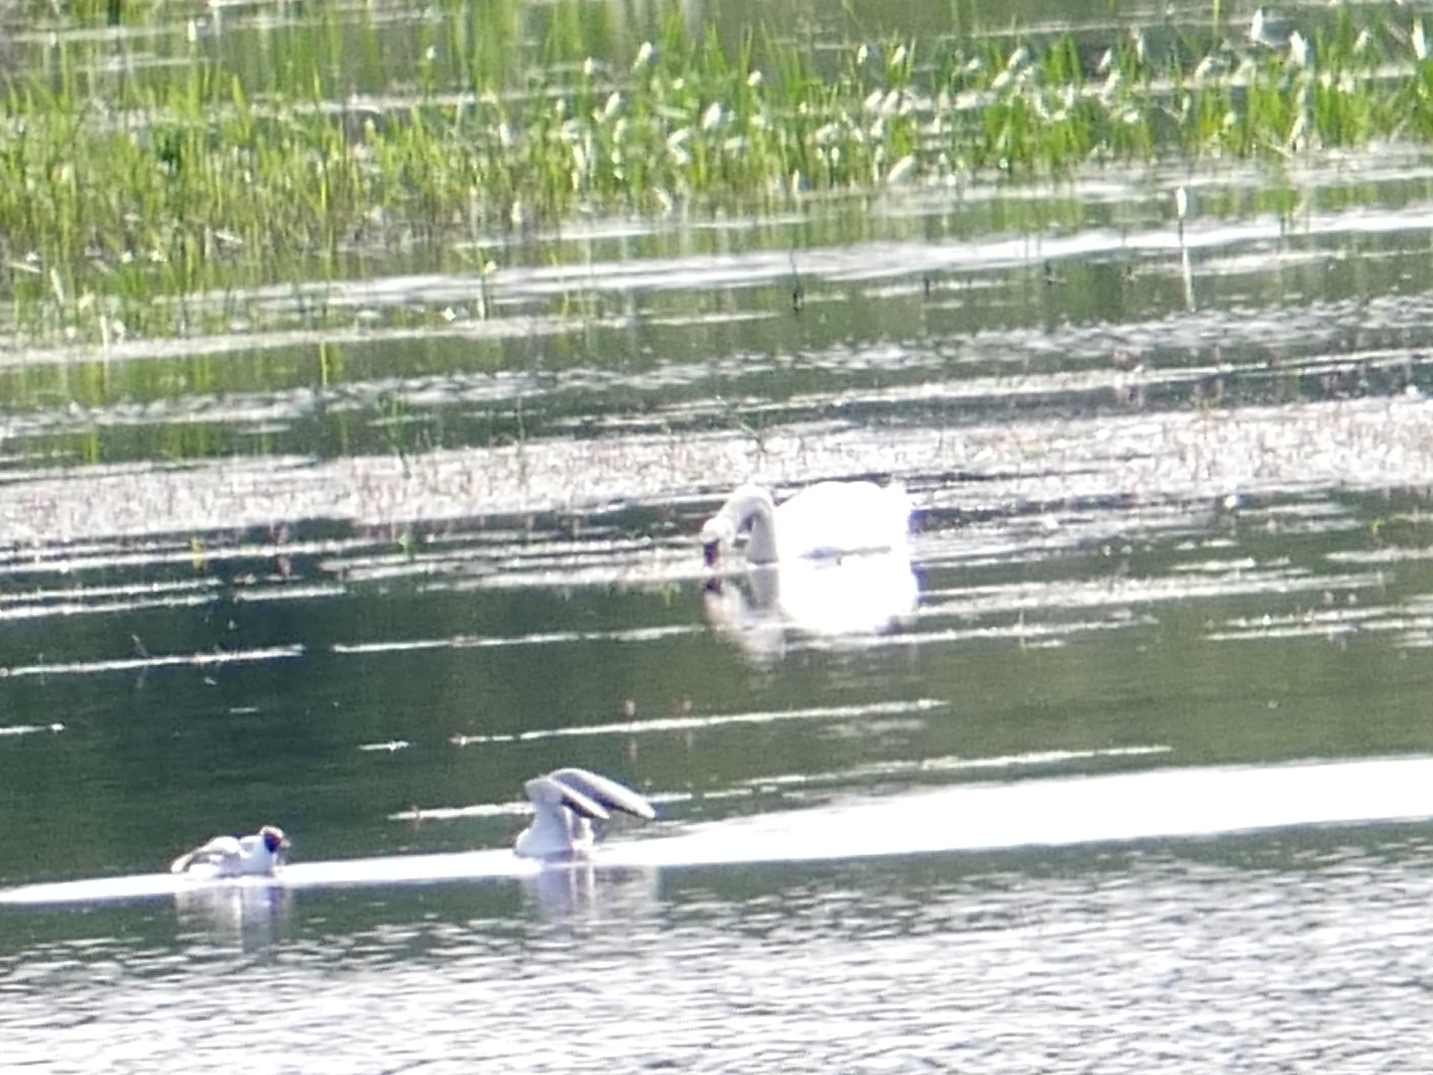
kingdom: Animalia
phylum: Chordata
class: Aves
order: Anseriformes
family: Anatidae
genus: Cygnus
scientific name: Cygnus olor
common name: Mute swan
